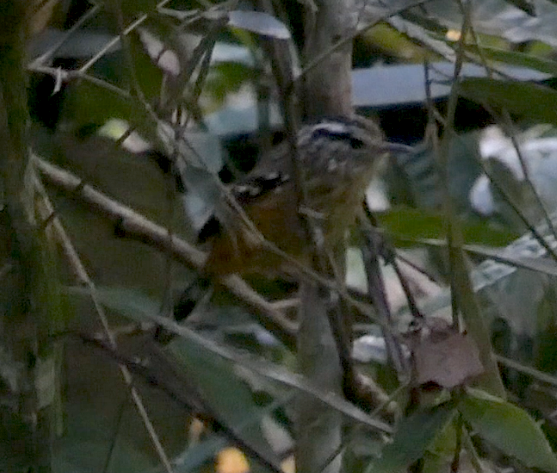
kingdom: Animalia
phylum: Chordata
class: Aves
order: Passeriformes
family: Thamnophilidae
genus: Drymophila
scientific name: Drymophila ochropyga
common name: Ochre-rumped antbird
